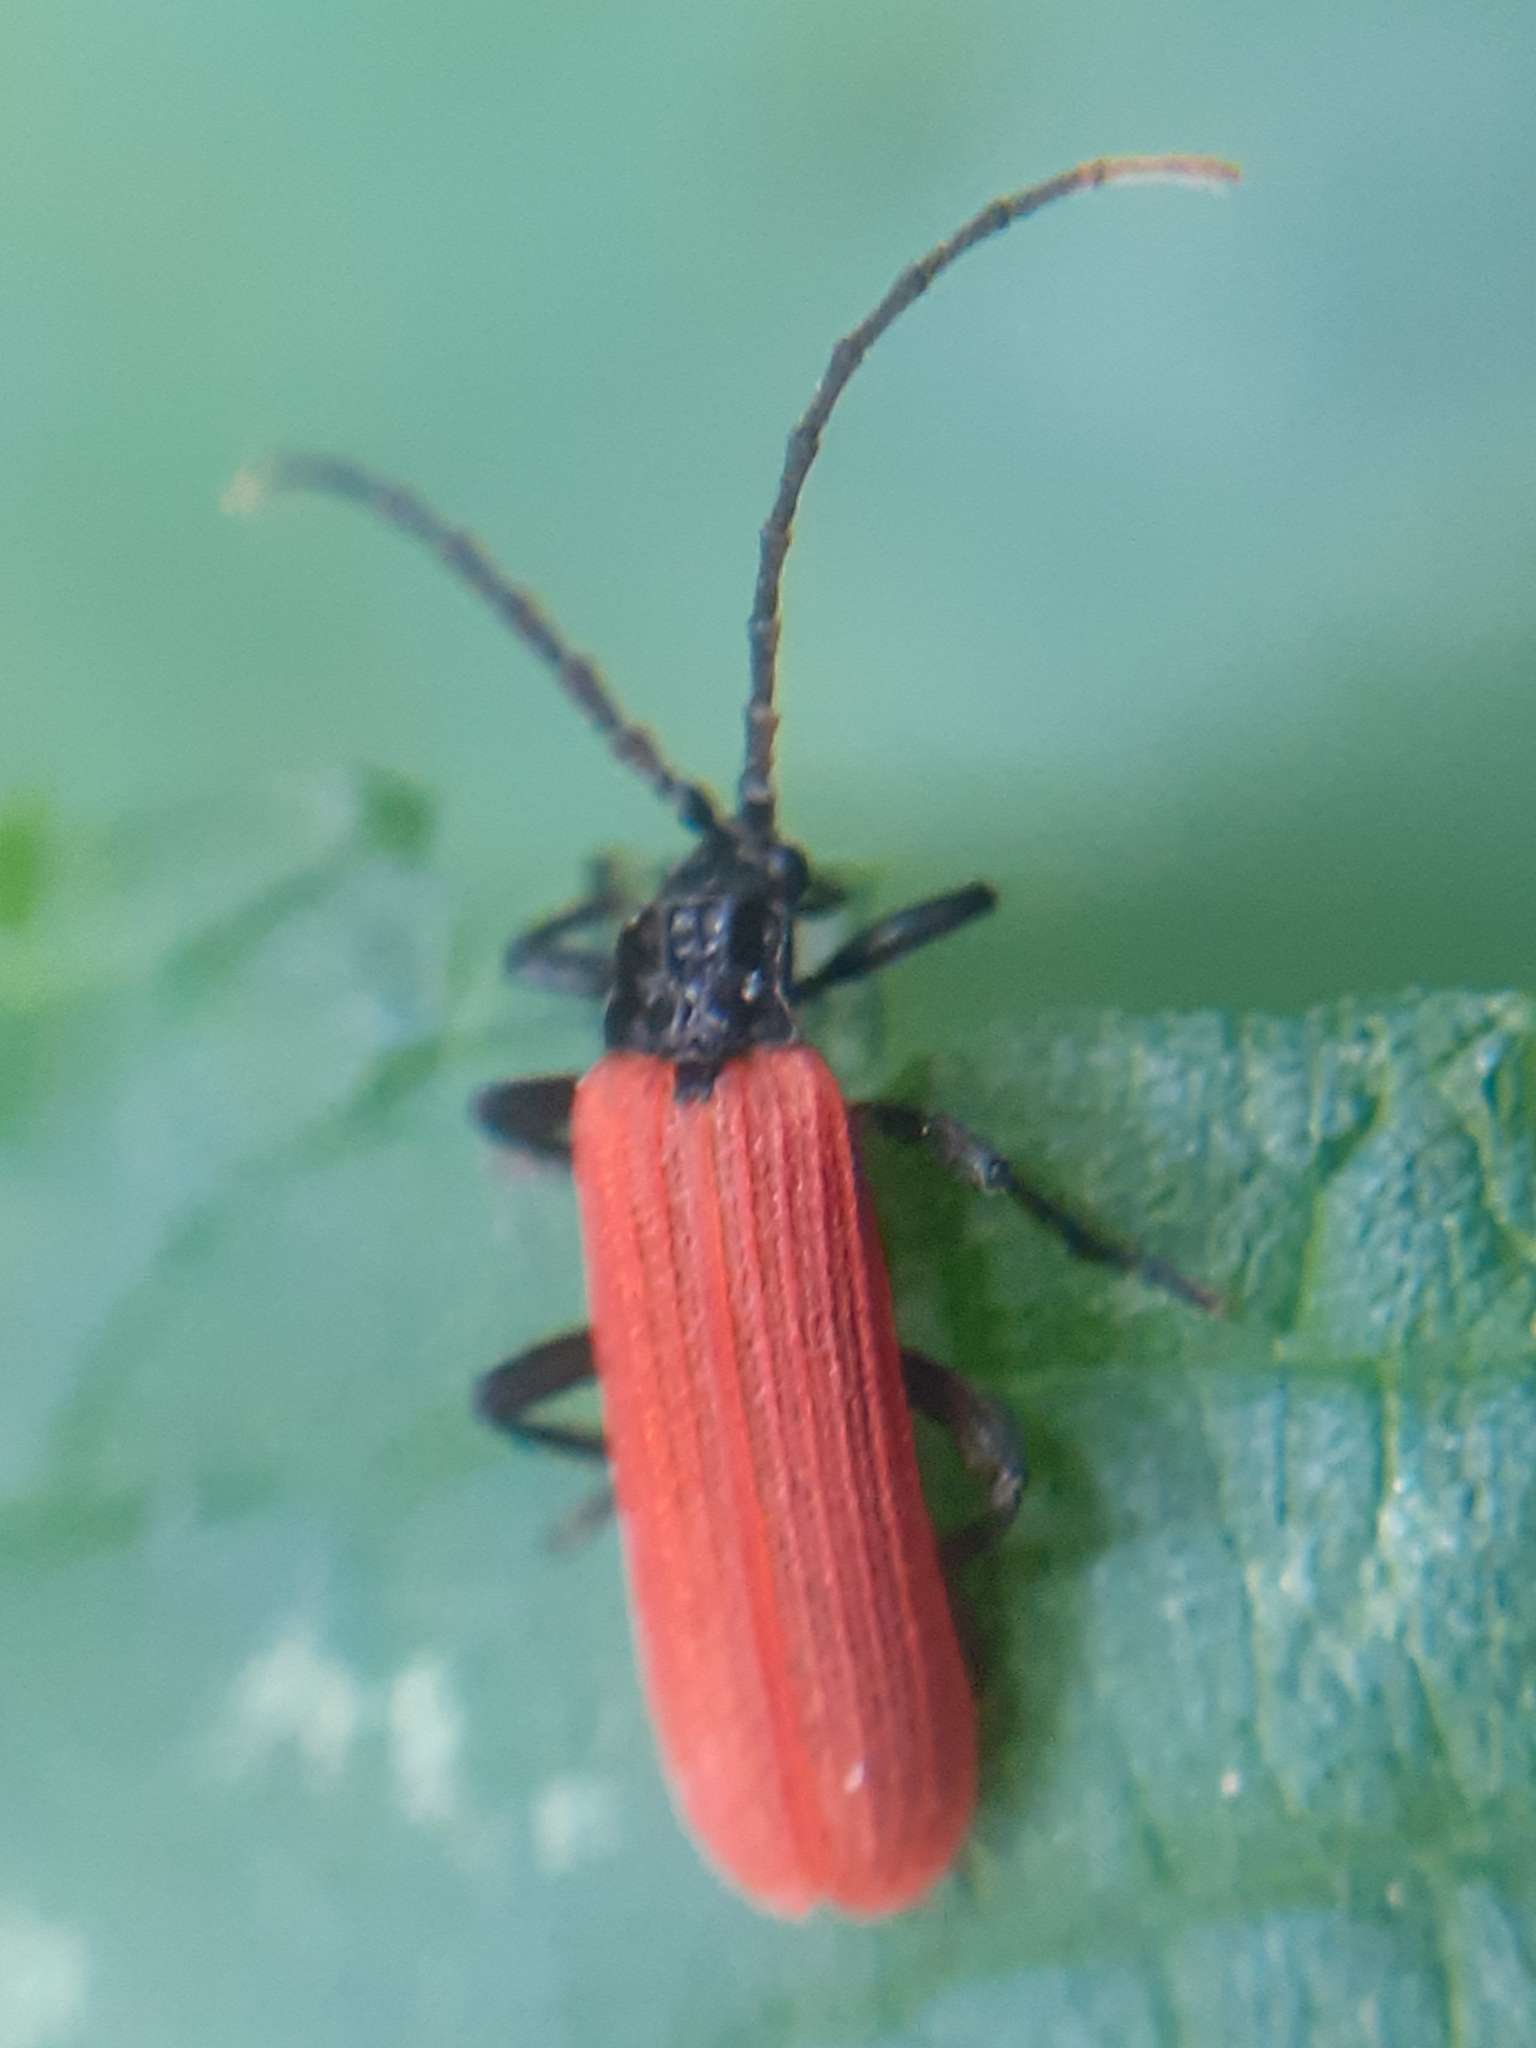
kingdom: Animalia
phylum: Arthropoda
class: Insecta
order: Coleoptera
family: Lycidae
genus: Platycis
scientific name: Platycis minutus
